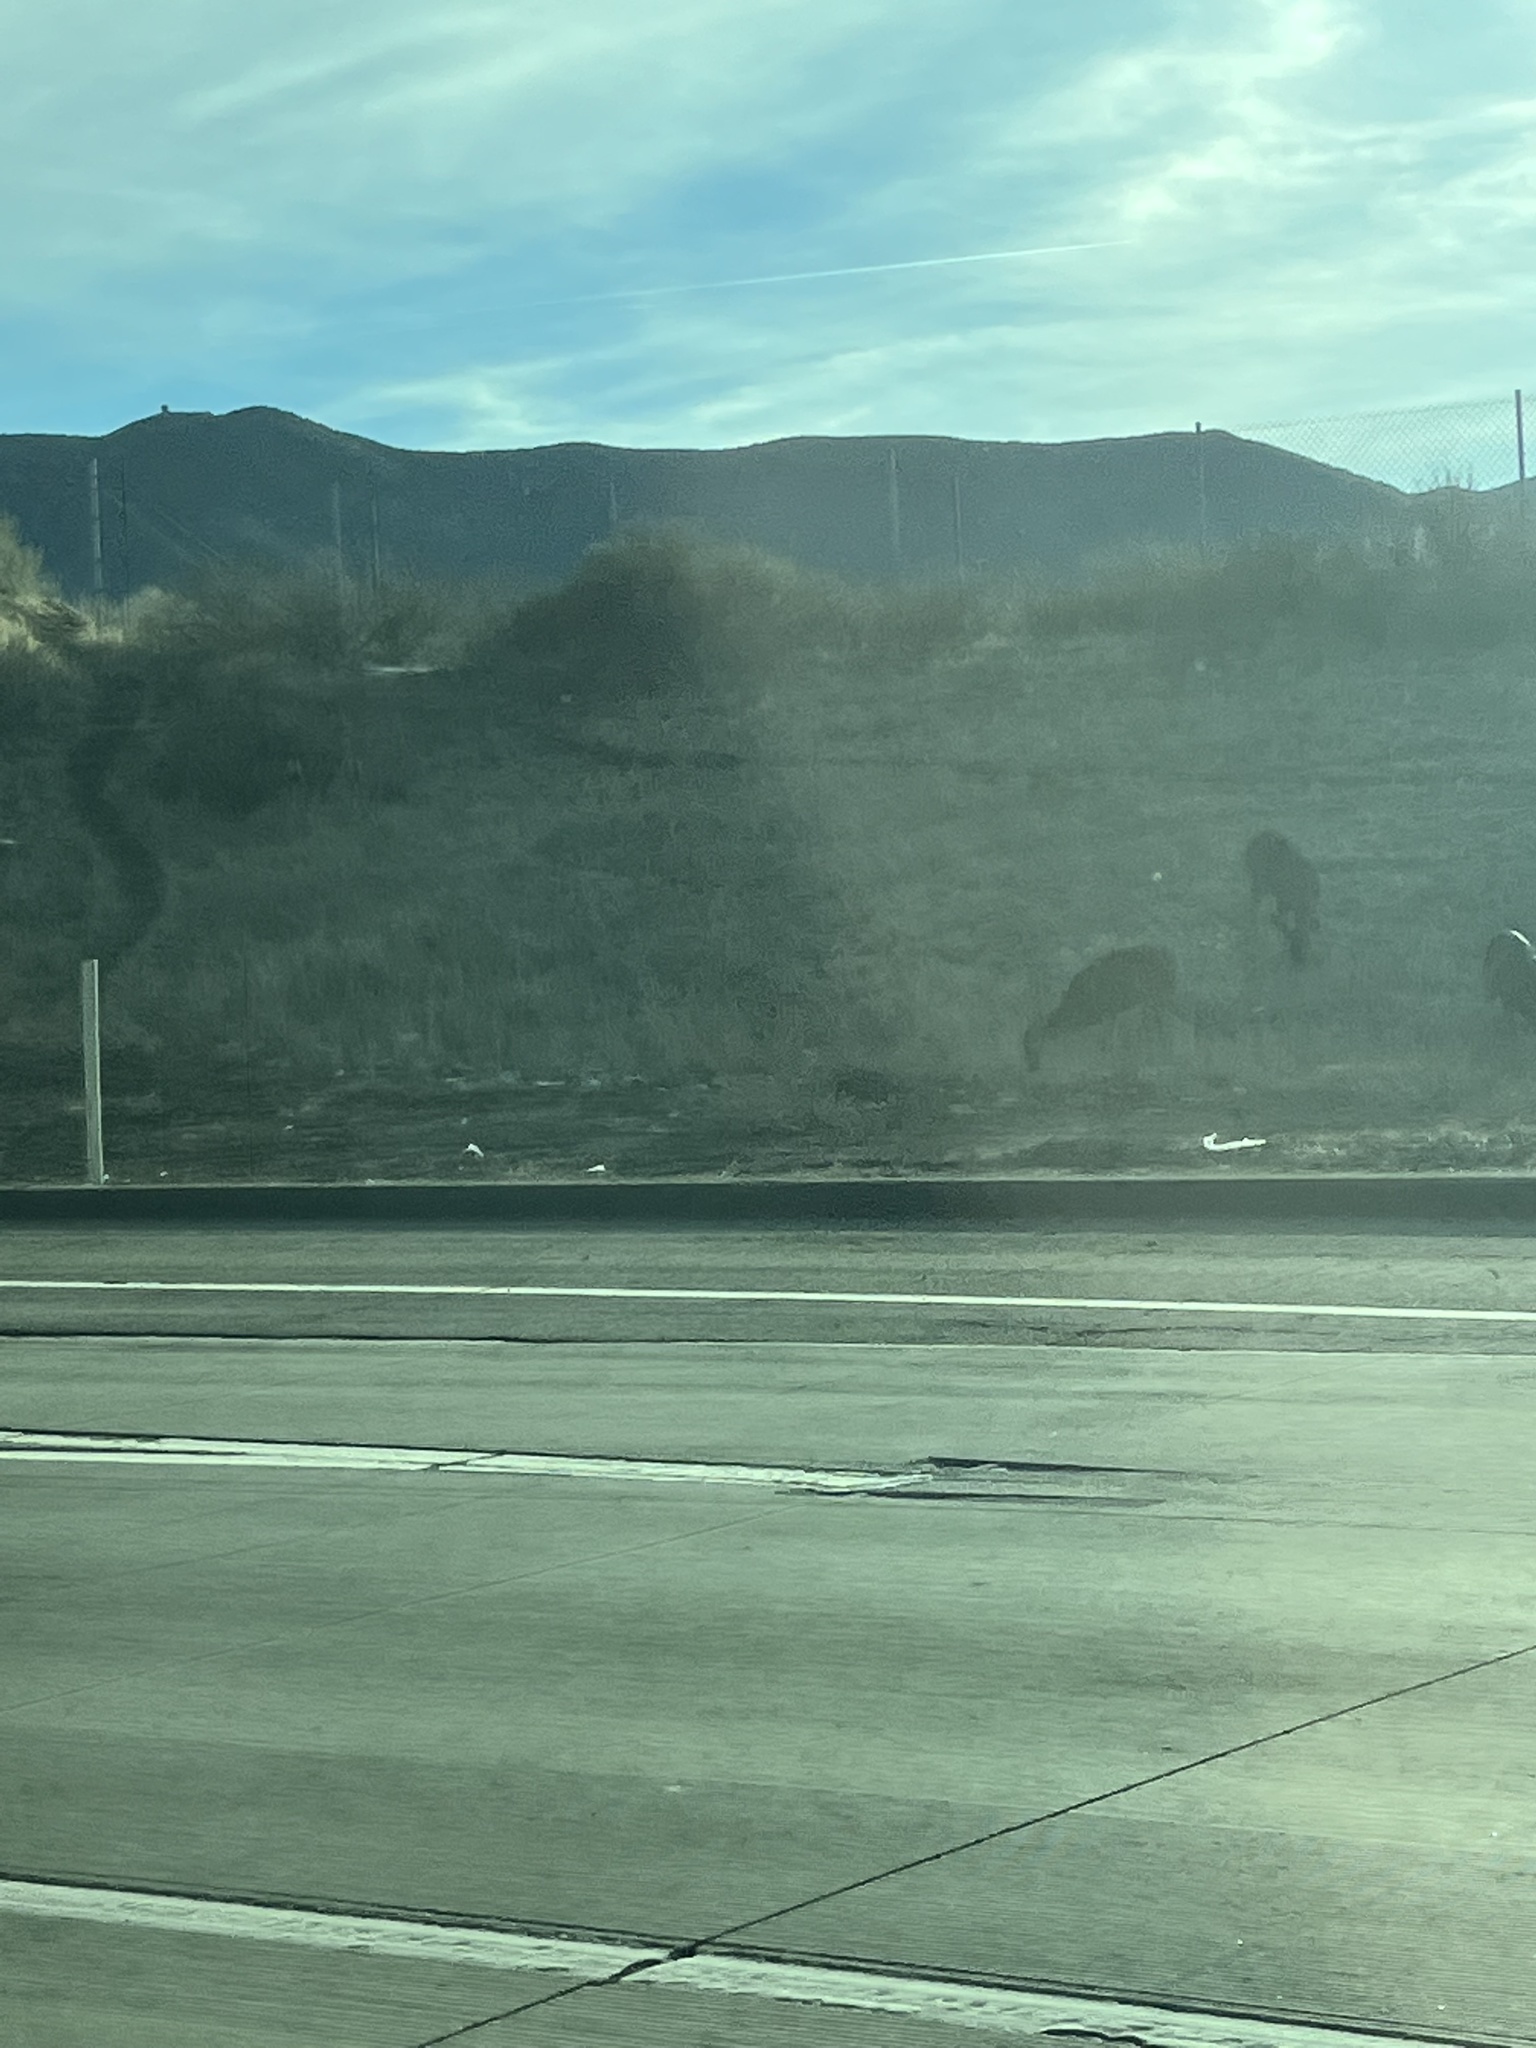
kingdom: Animalia
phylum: Chordata
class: Mammalia
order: Artiodactyla
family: Cervidae
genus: Odocoileus
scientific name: Odocoileus hemionus
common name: Mule deer
